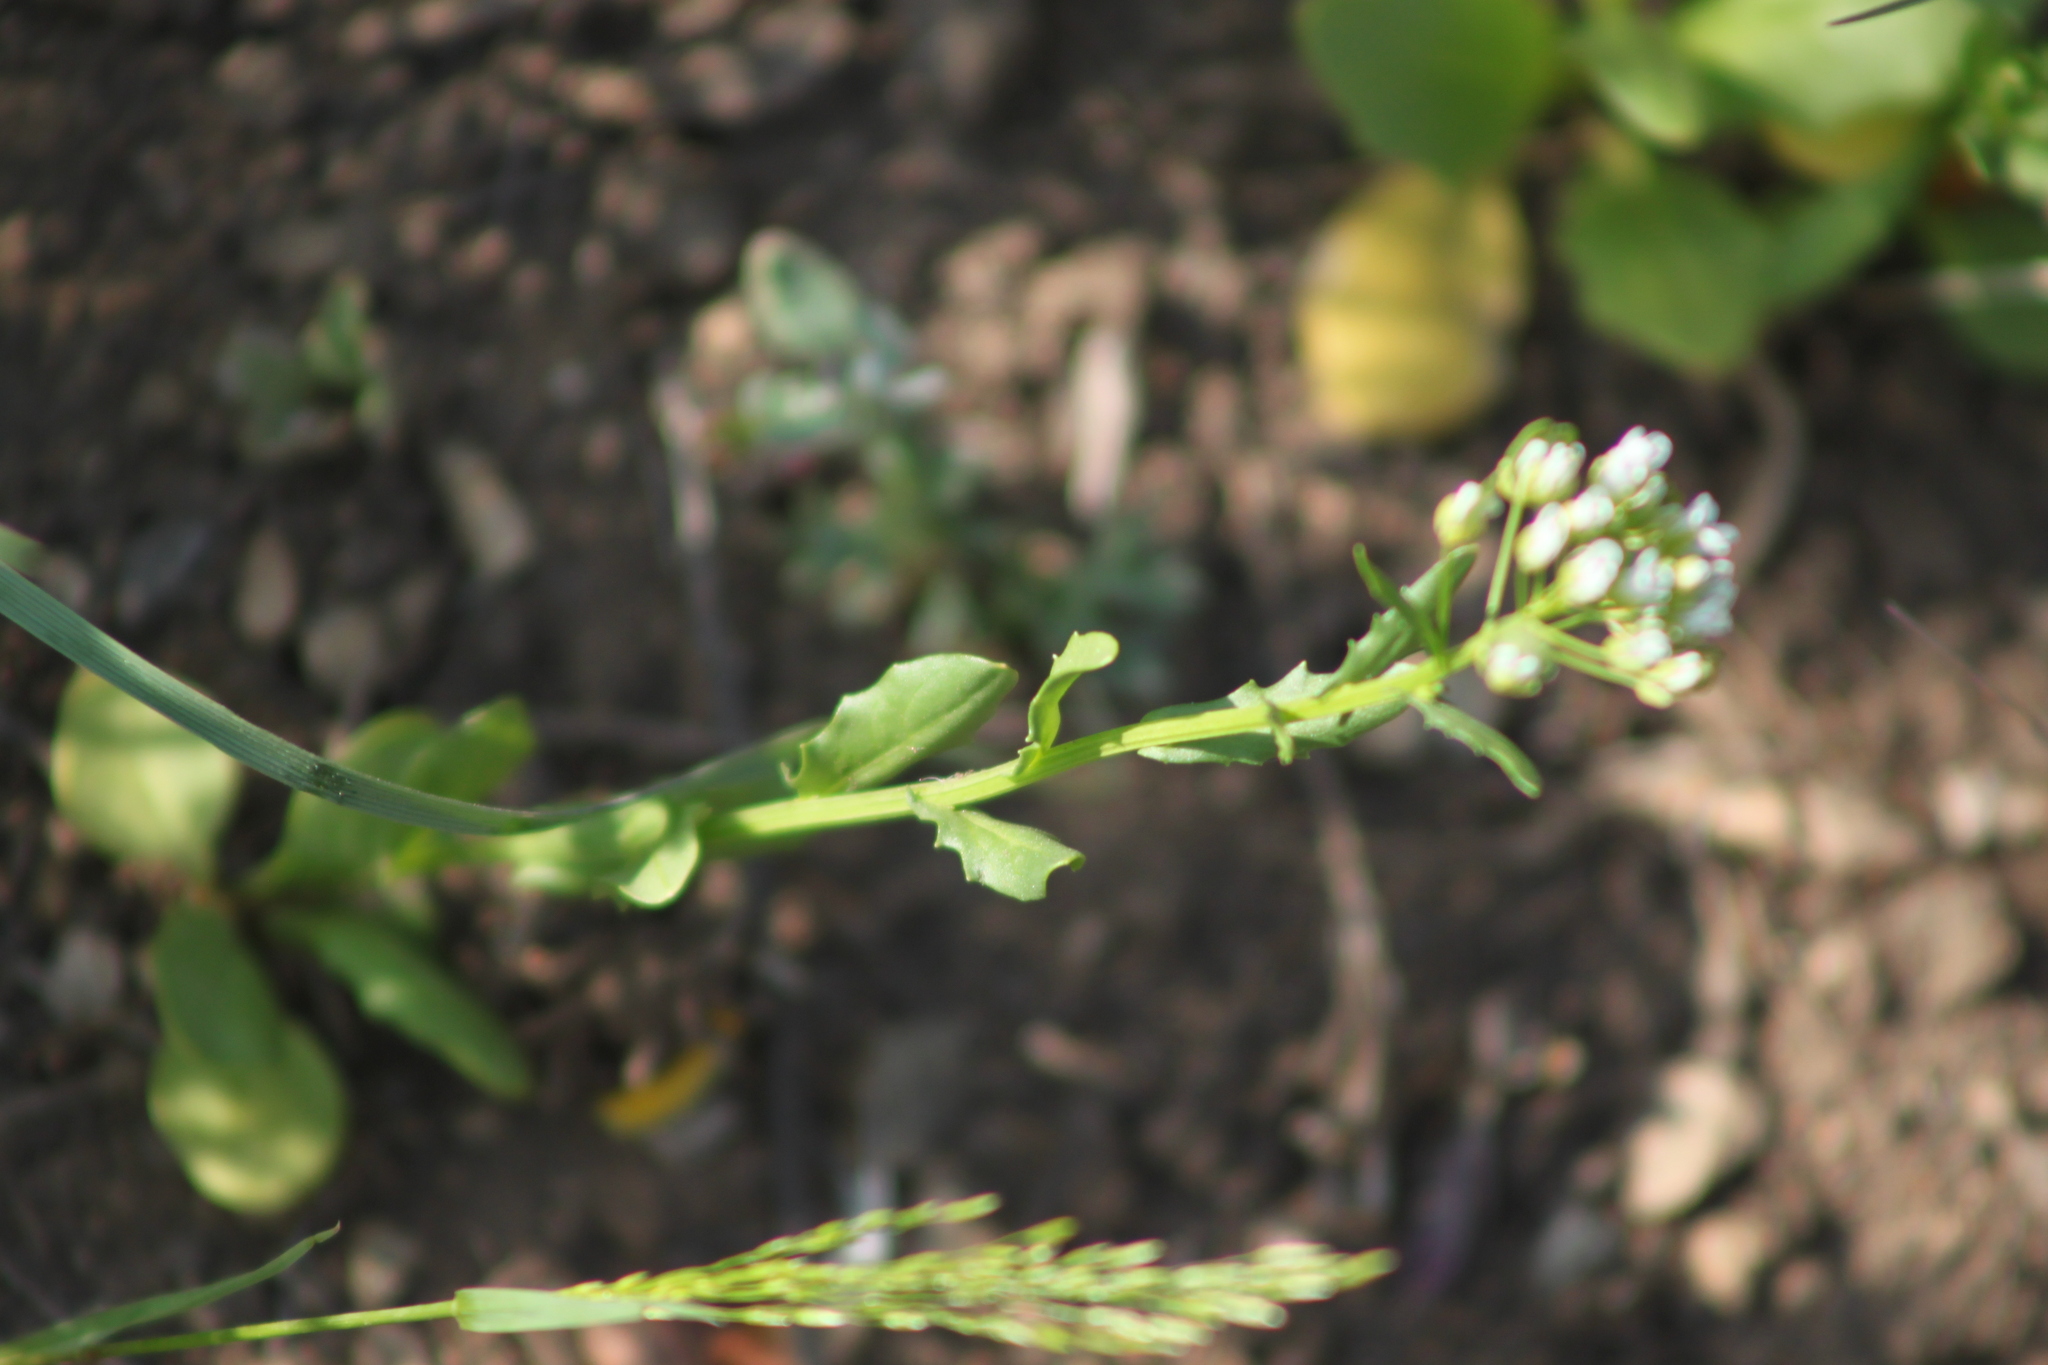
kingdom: Plantae
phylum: Tracheophyta
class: Magnoliopsida
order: Brassicales
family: Brassicaceae
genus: Thlaspi
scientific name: Thlaspi arvense
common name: Field pennycress
